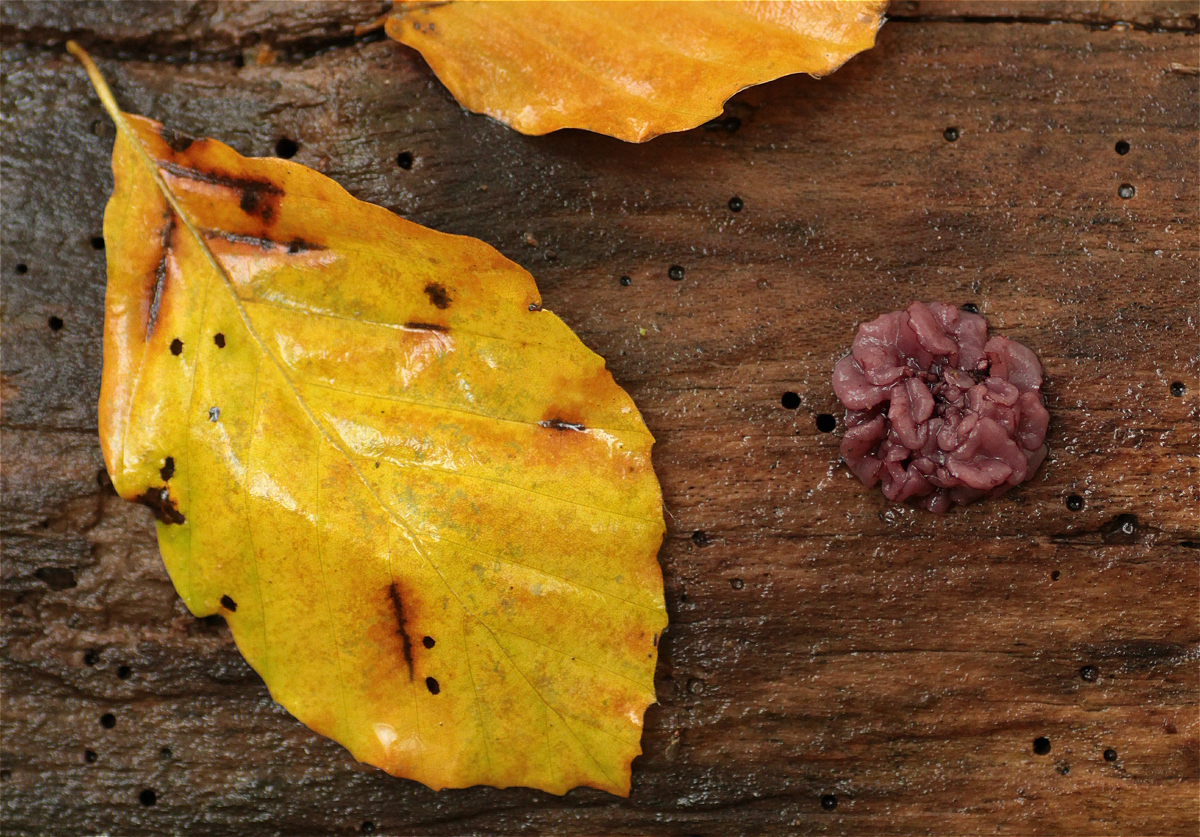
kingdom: Fungi
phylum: Ascomycota
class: Leotiomycetes
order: Helotiales
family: Gelatinodiscaceae
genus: Ascocoryne
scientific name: Ascocoryne sarcoides
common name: Purple jellydisc
